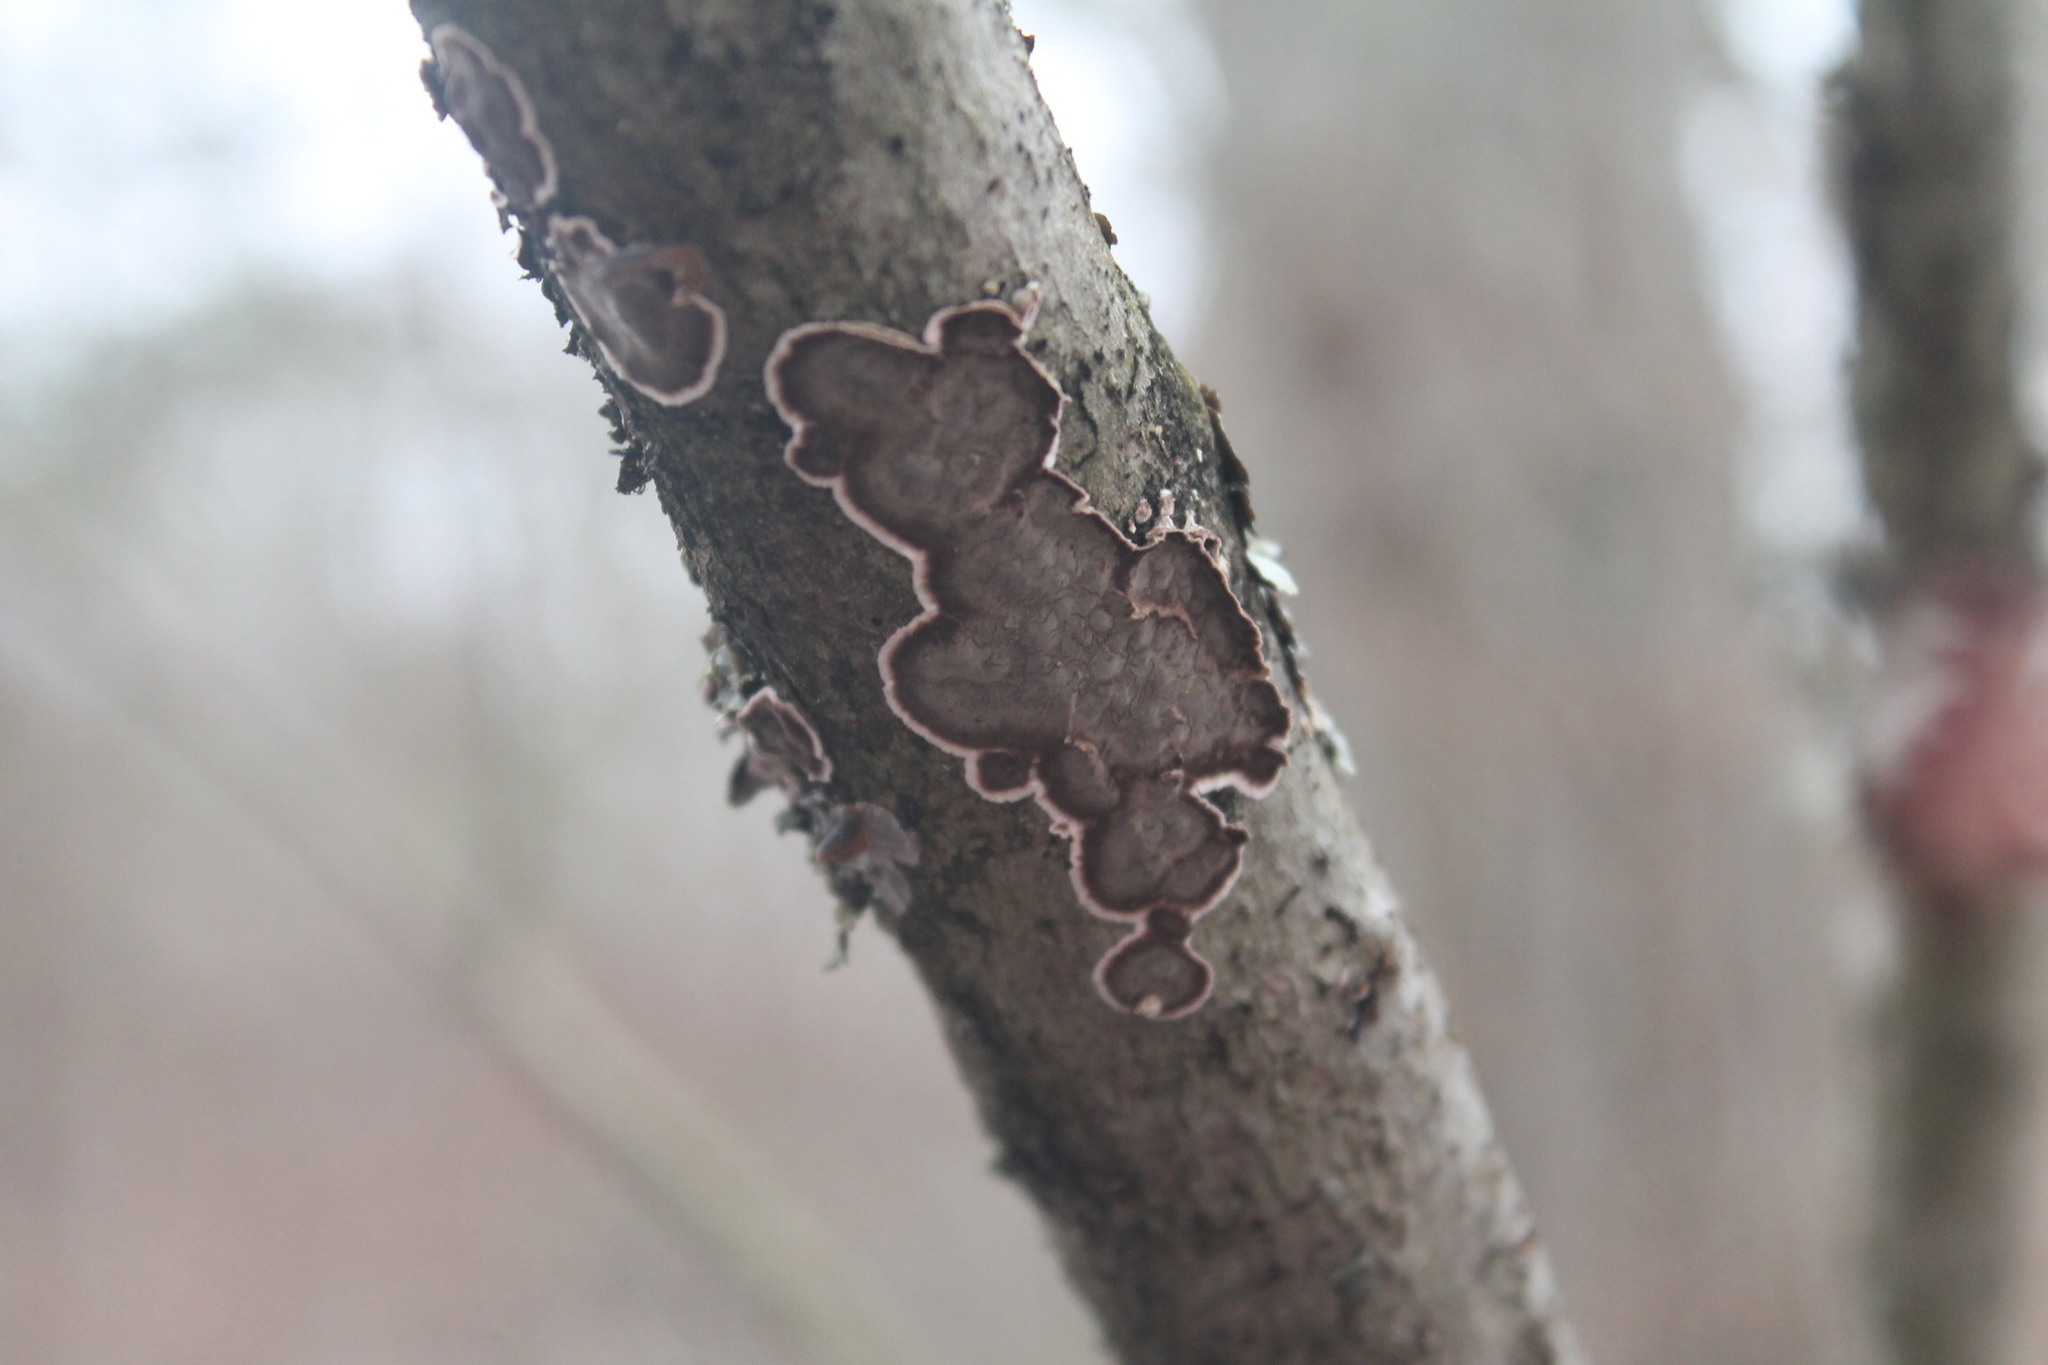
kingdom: Fungi
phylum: Basidiomycota
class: Agaricomycetes
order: Russulales
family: Peniophoraceae
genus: Peniophora
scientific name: Peniophora albobadia
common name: Giraffe spots
